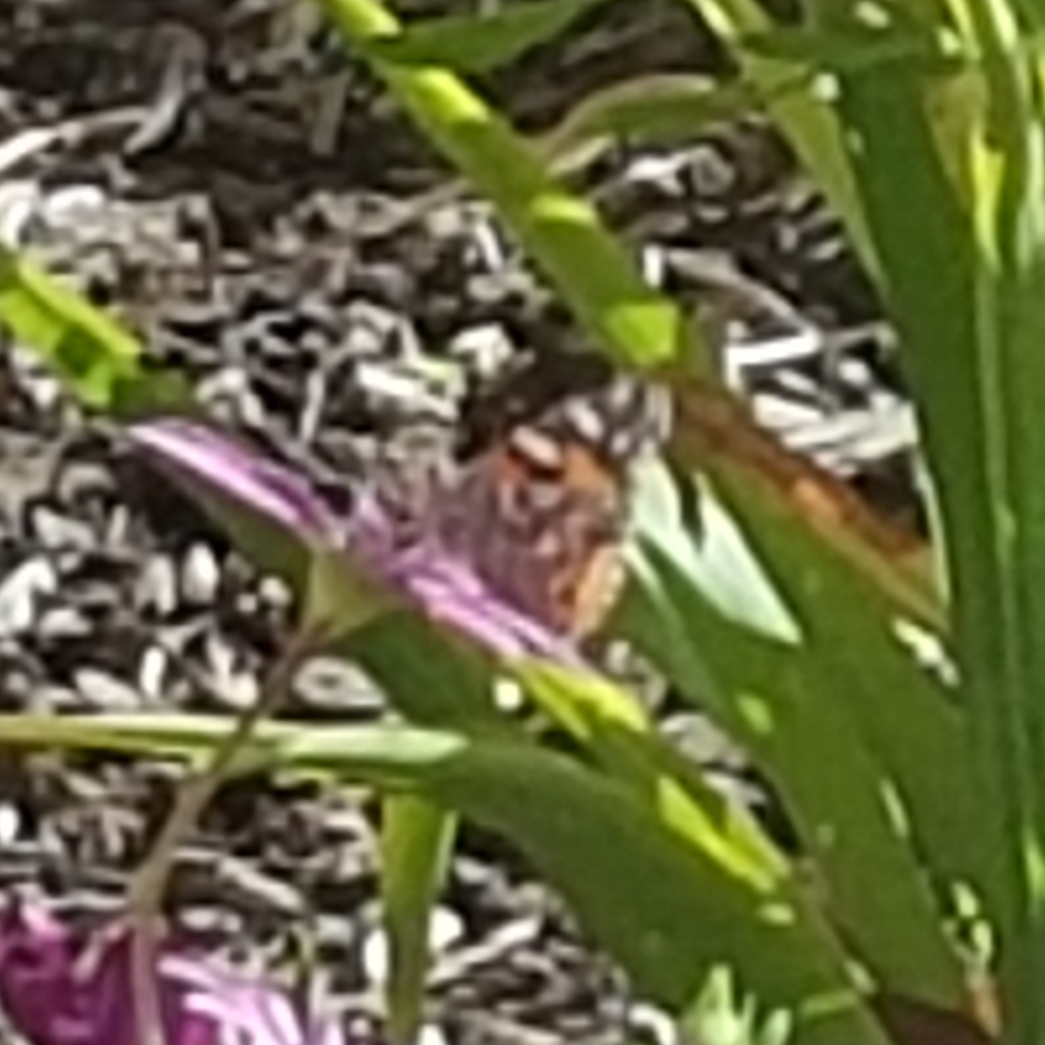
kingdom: Animalia
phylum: Arthropoda
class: Insecta
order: Lepidoptera
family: Nymphalidae
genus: Vanessa
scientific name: Vanessa kershawi
